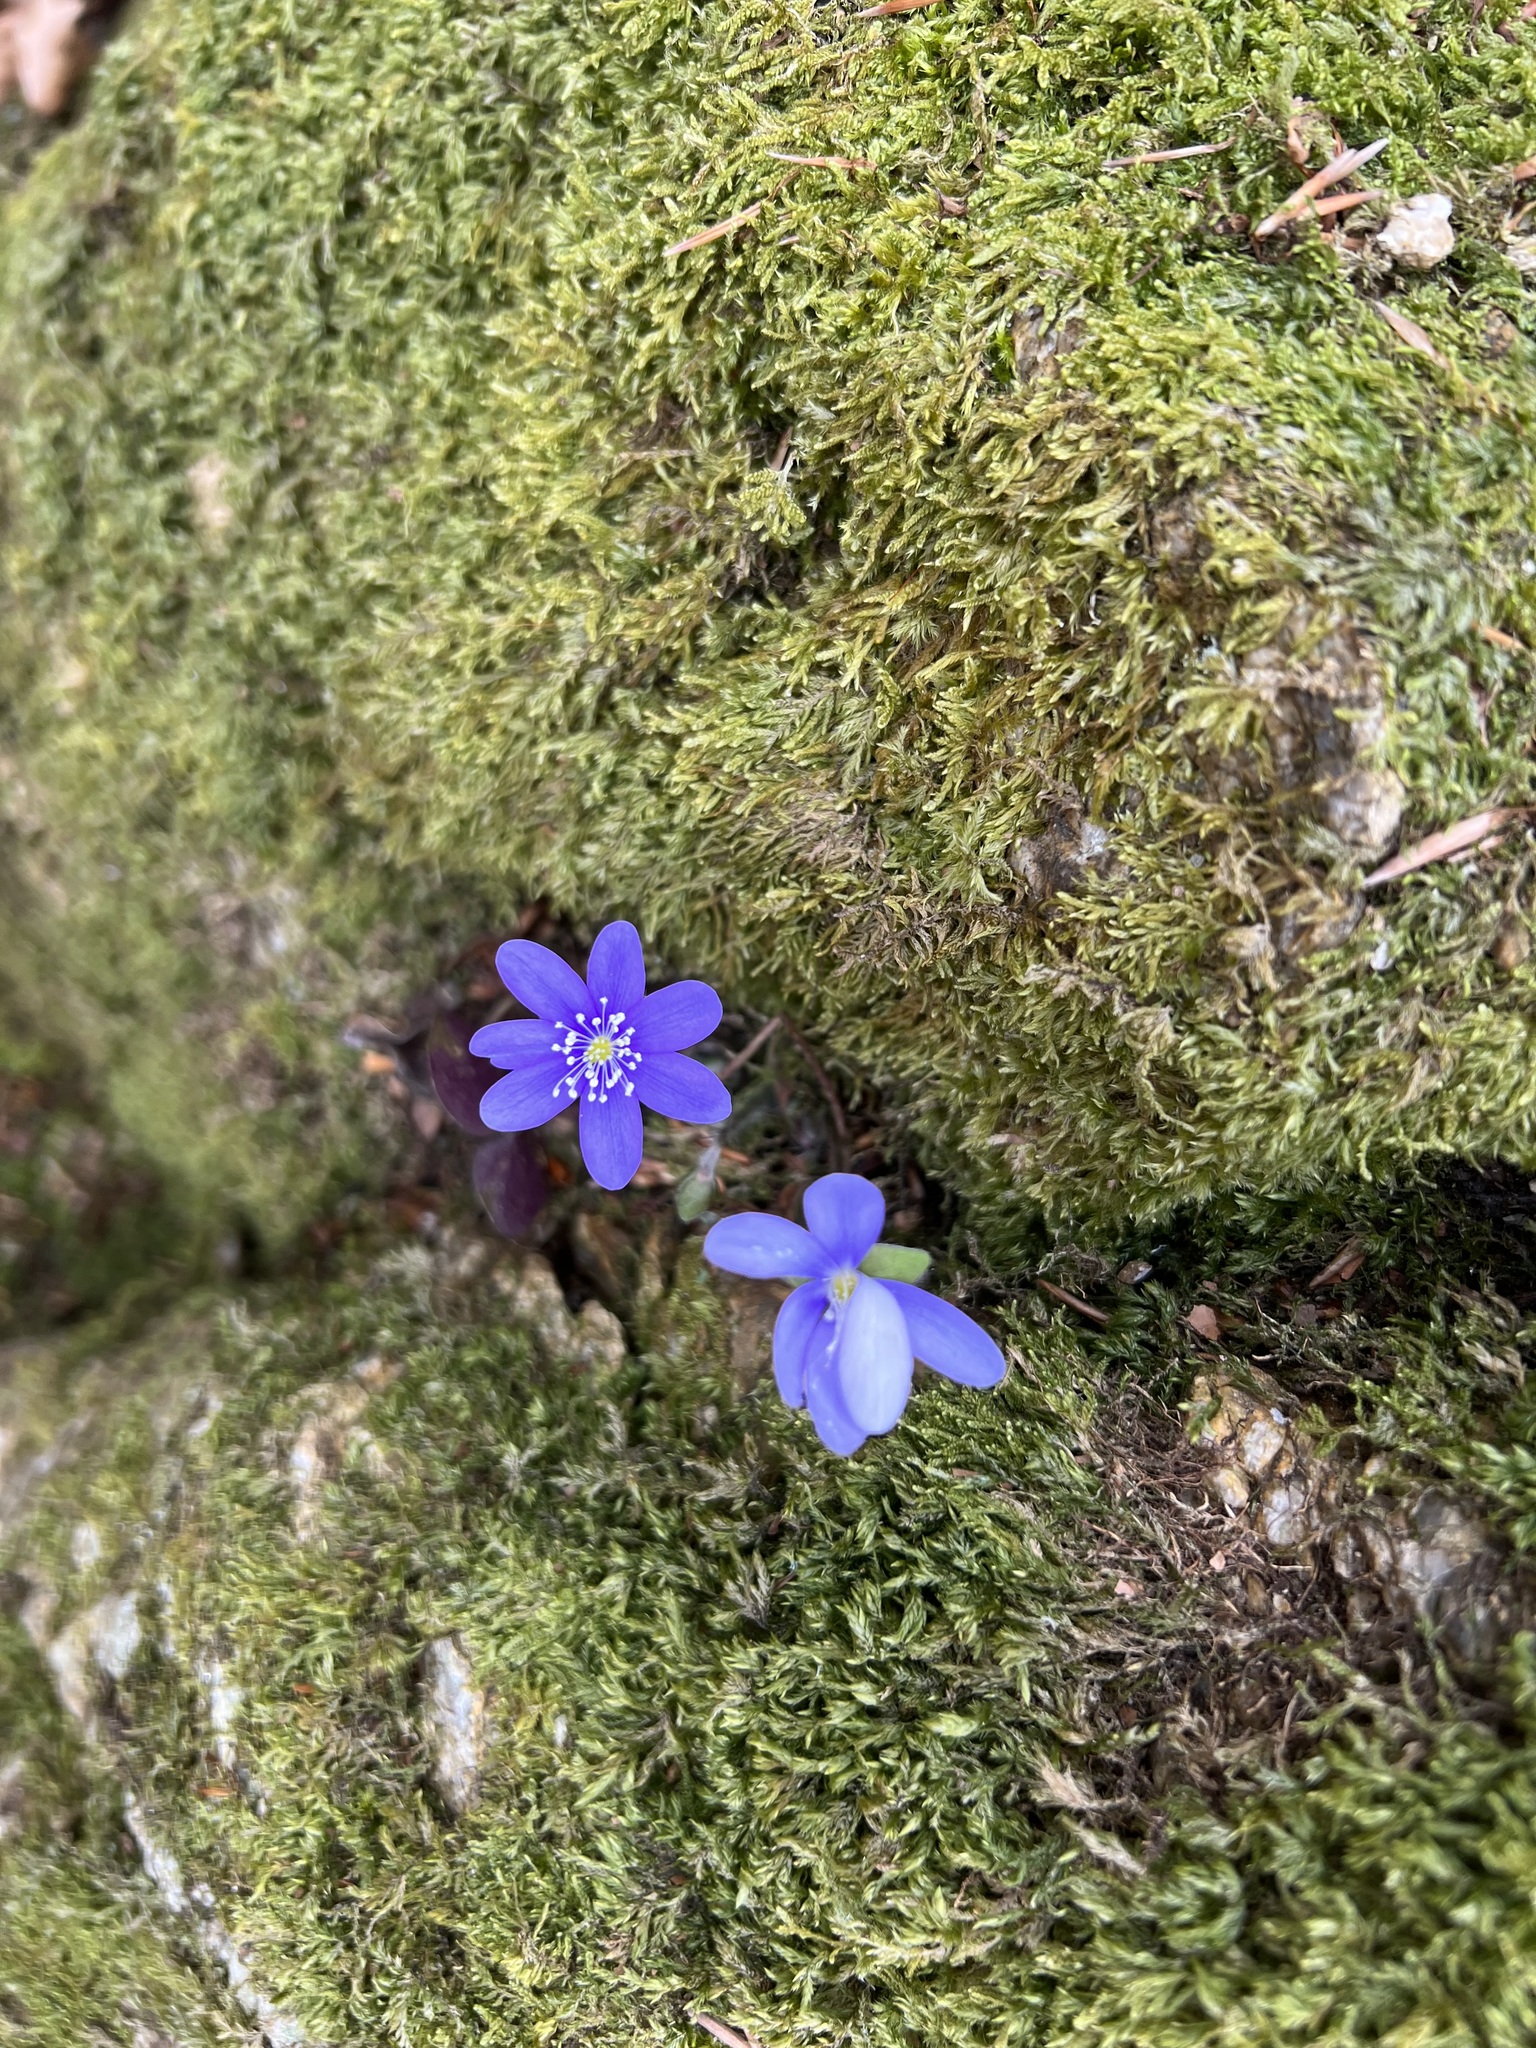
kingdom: Plantae
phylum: Tracheophyta
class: Magnoliopsida
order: Ranunculales
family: Ranunculaceae
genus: Hepatica
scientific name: Hepatica nobilis
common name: Liverleaf
